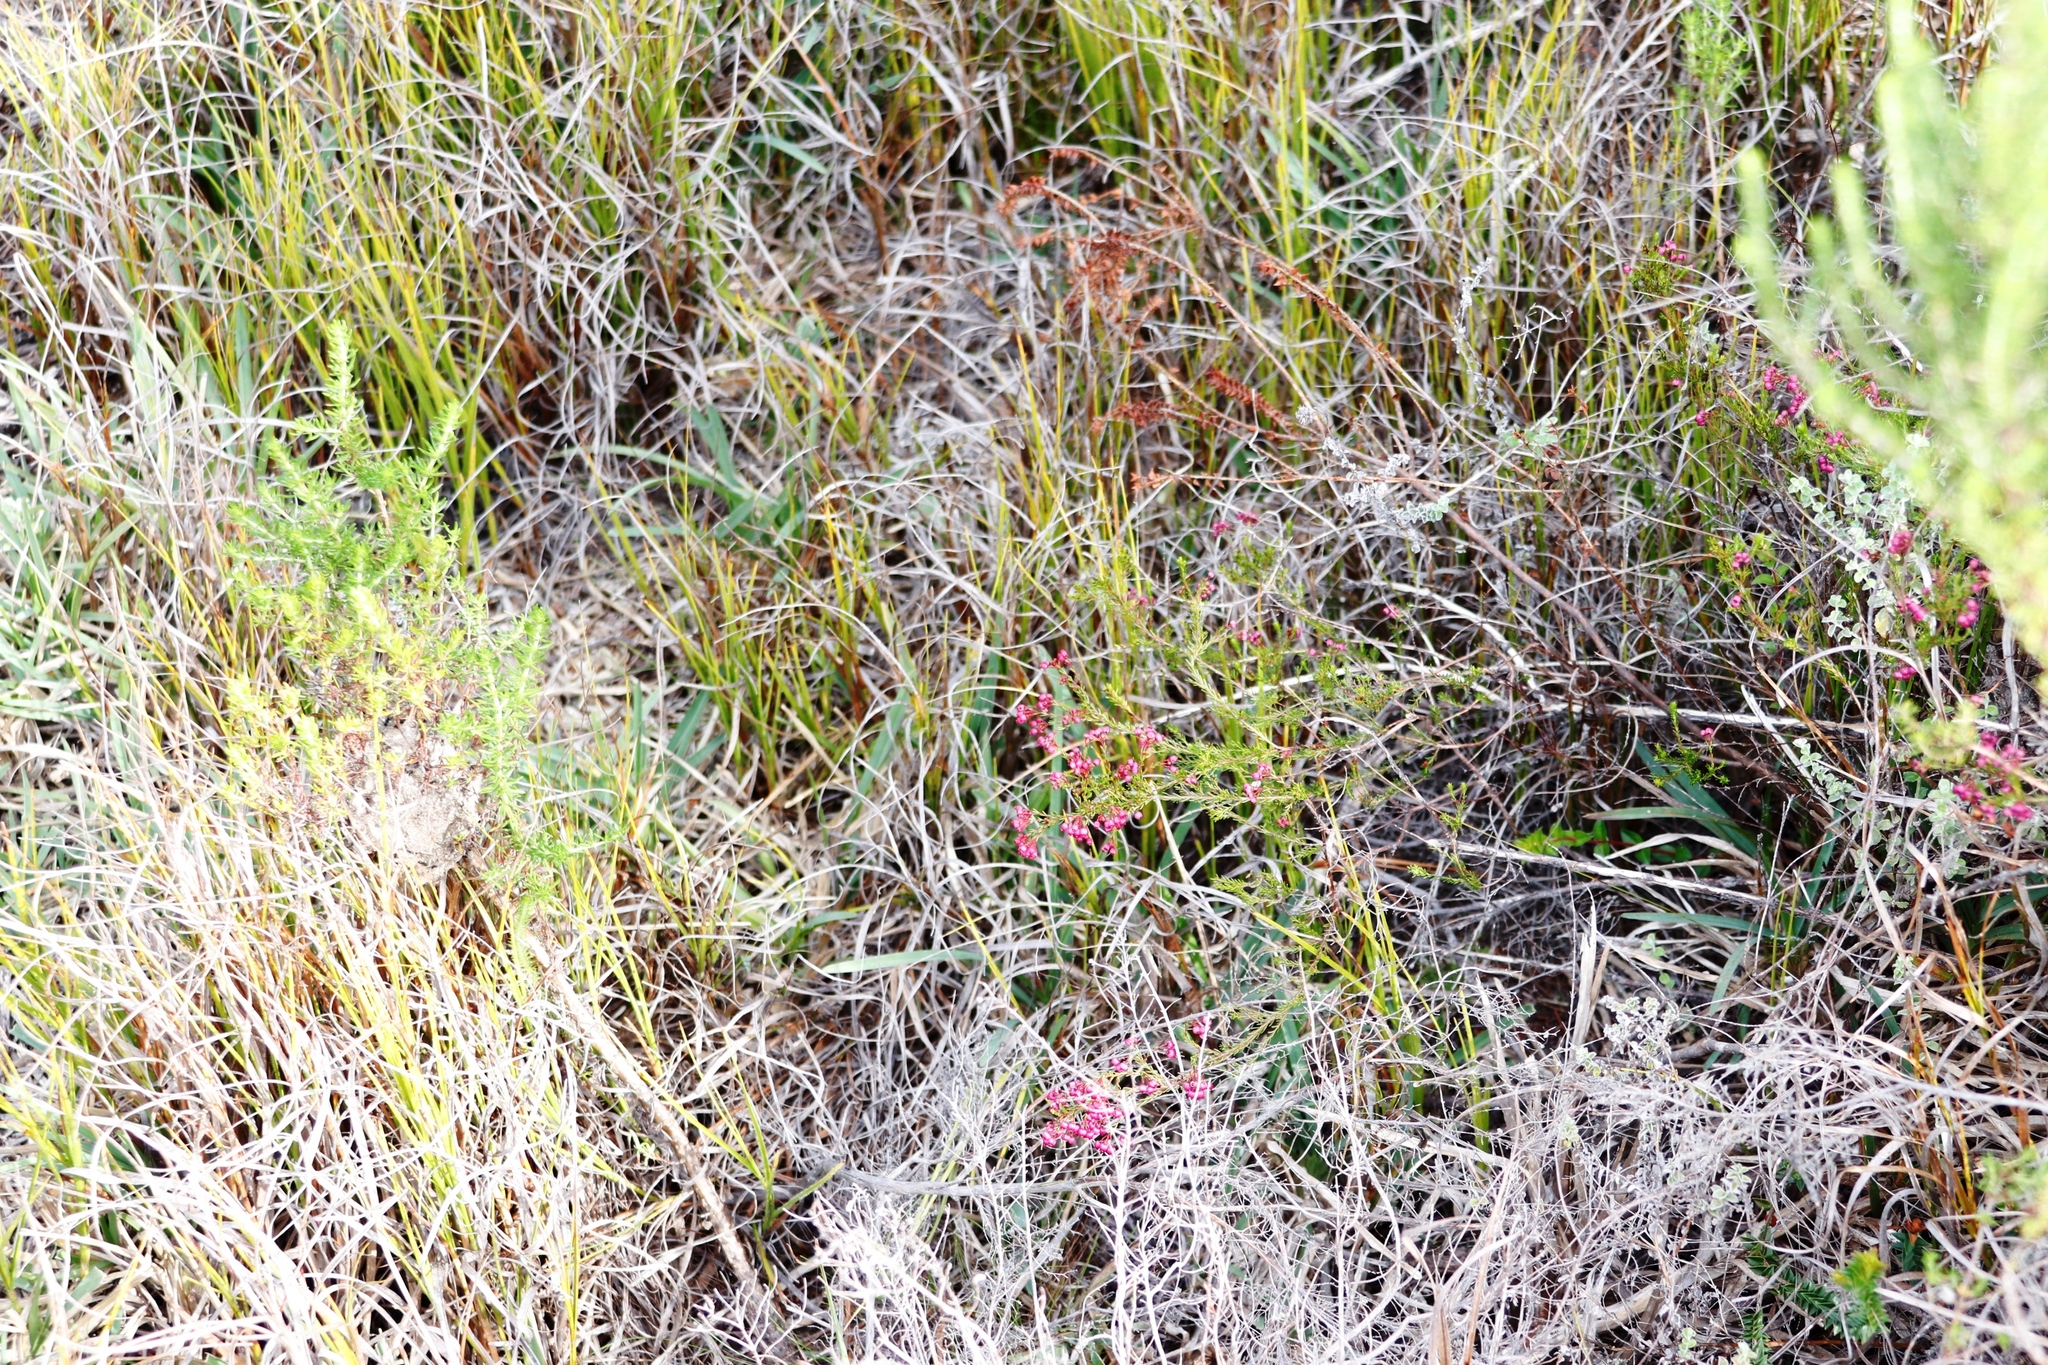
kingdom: Plantae
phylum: Tracheophyta
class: Magnoliopsida
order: Ericales
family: Ericaceae
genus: Erica
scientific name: Erica multumbellifera
